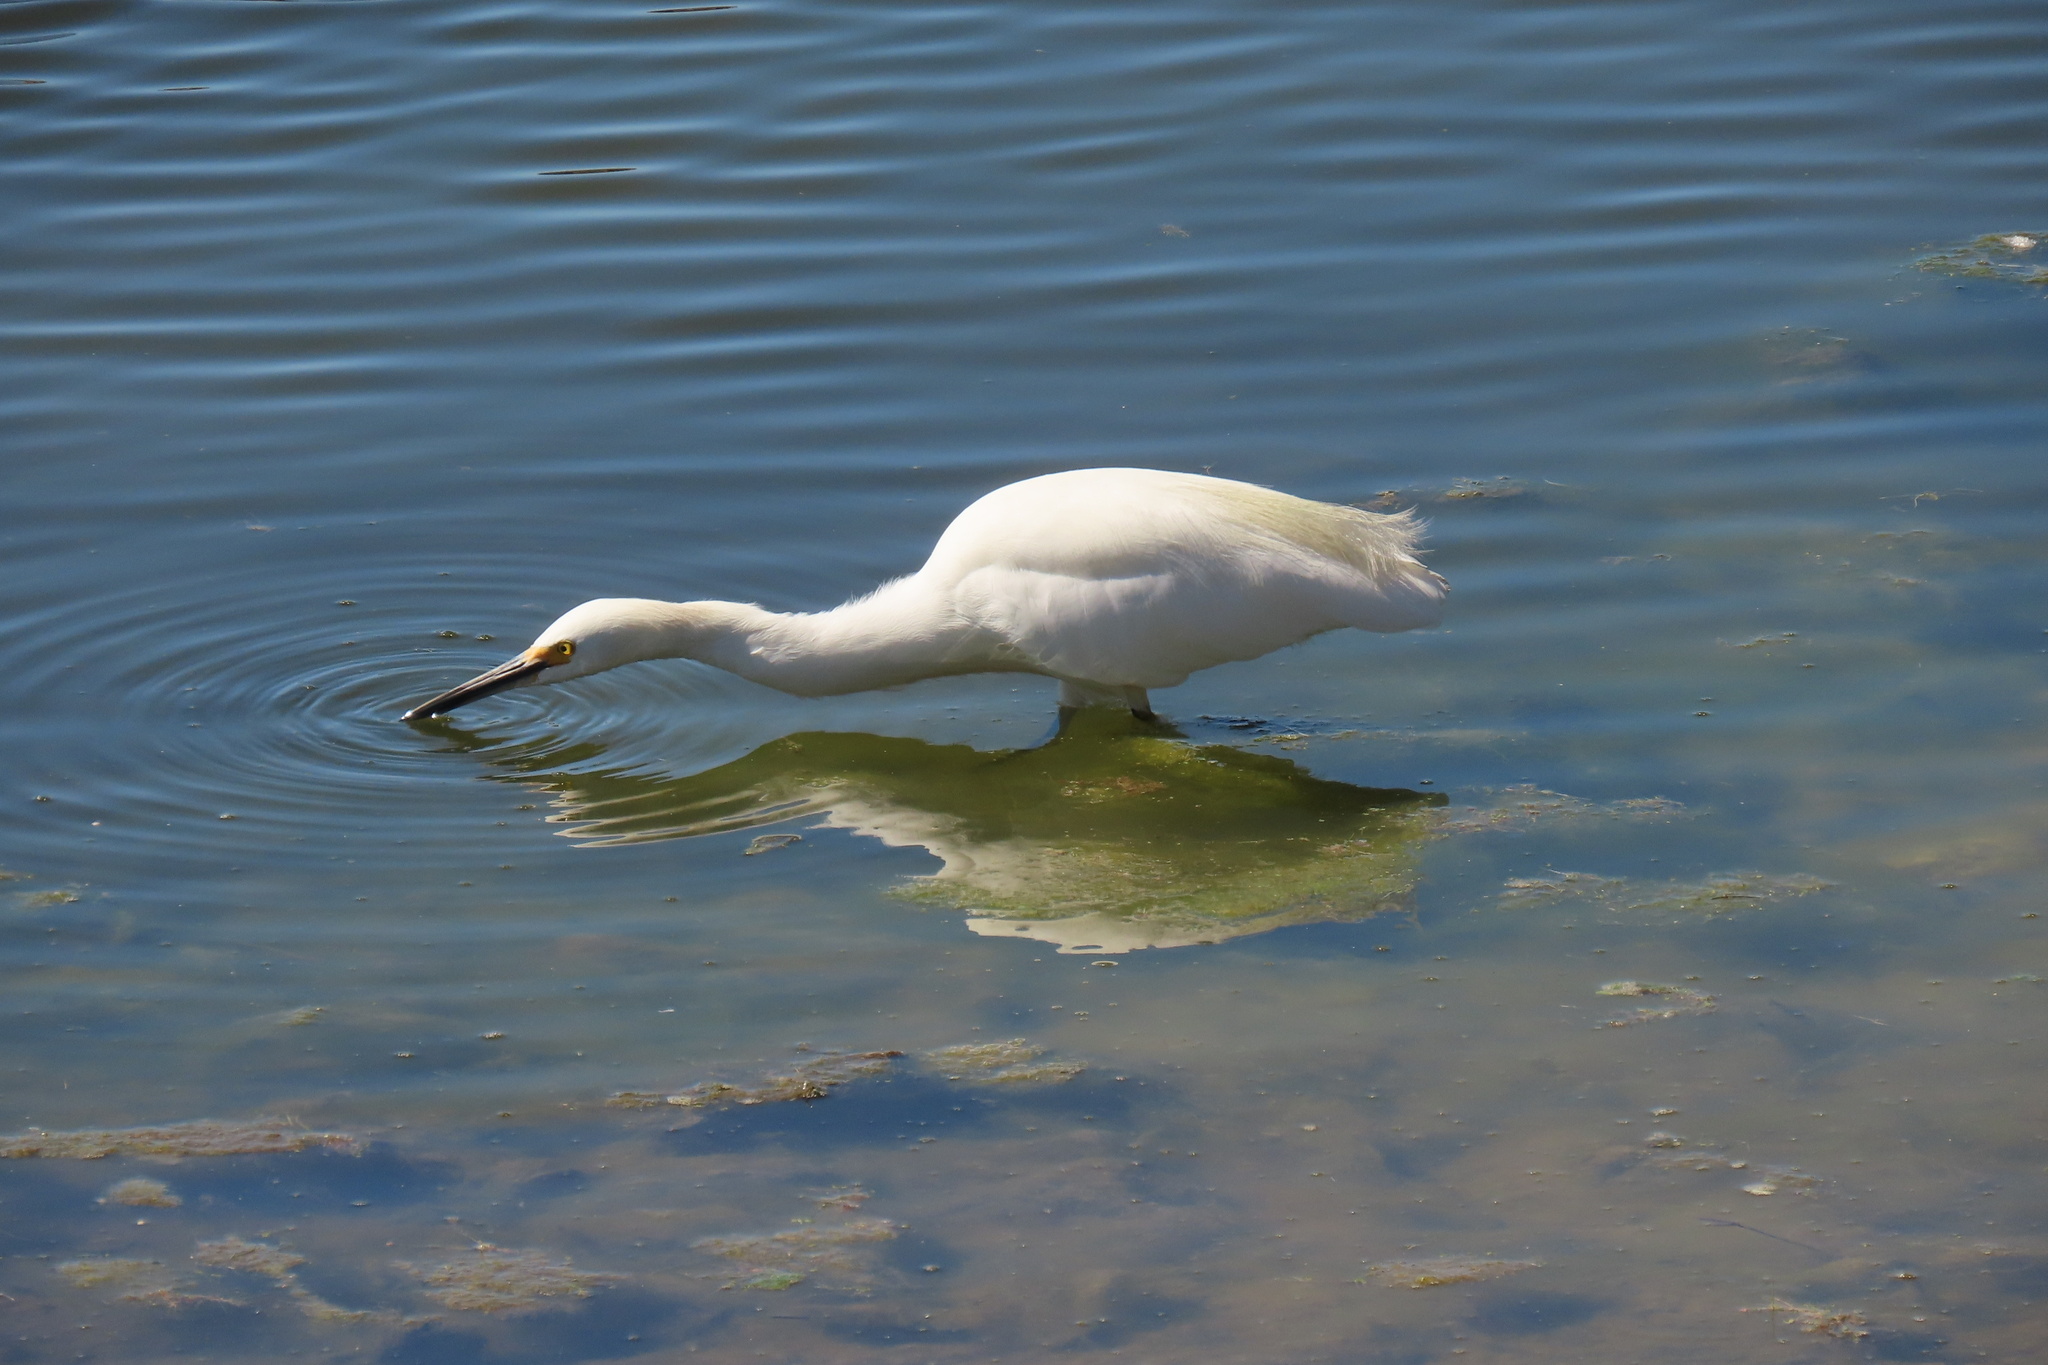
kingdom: Animalia
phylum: Chordata
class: Aves
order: Pelecaniformes
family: Ardeidae
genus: Egretta
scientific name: Egretta thula
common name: Snowy egret
